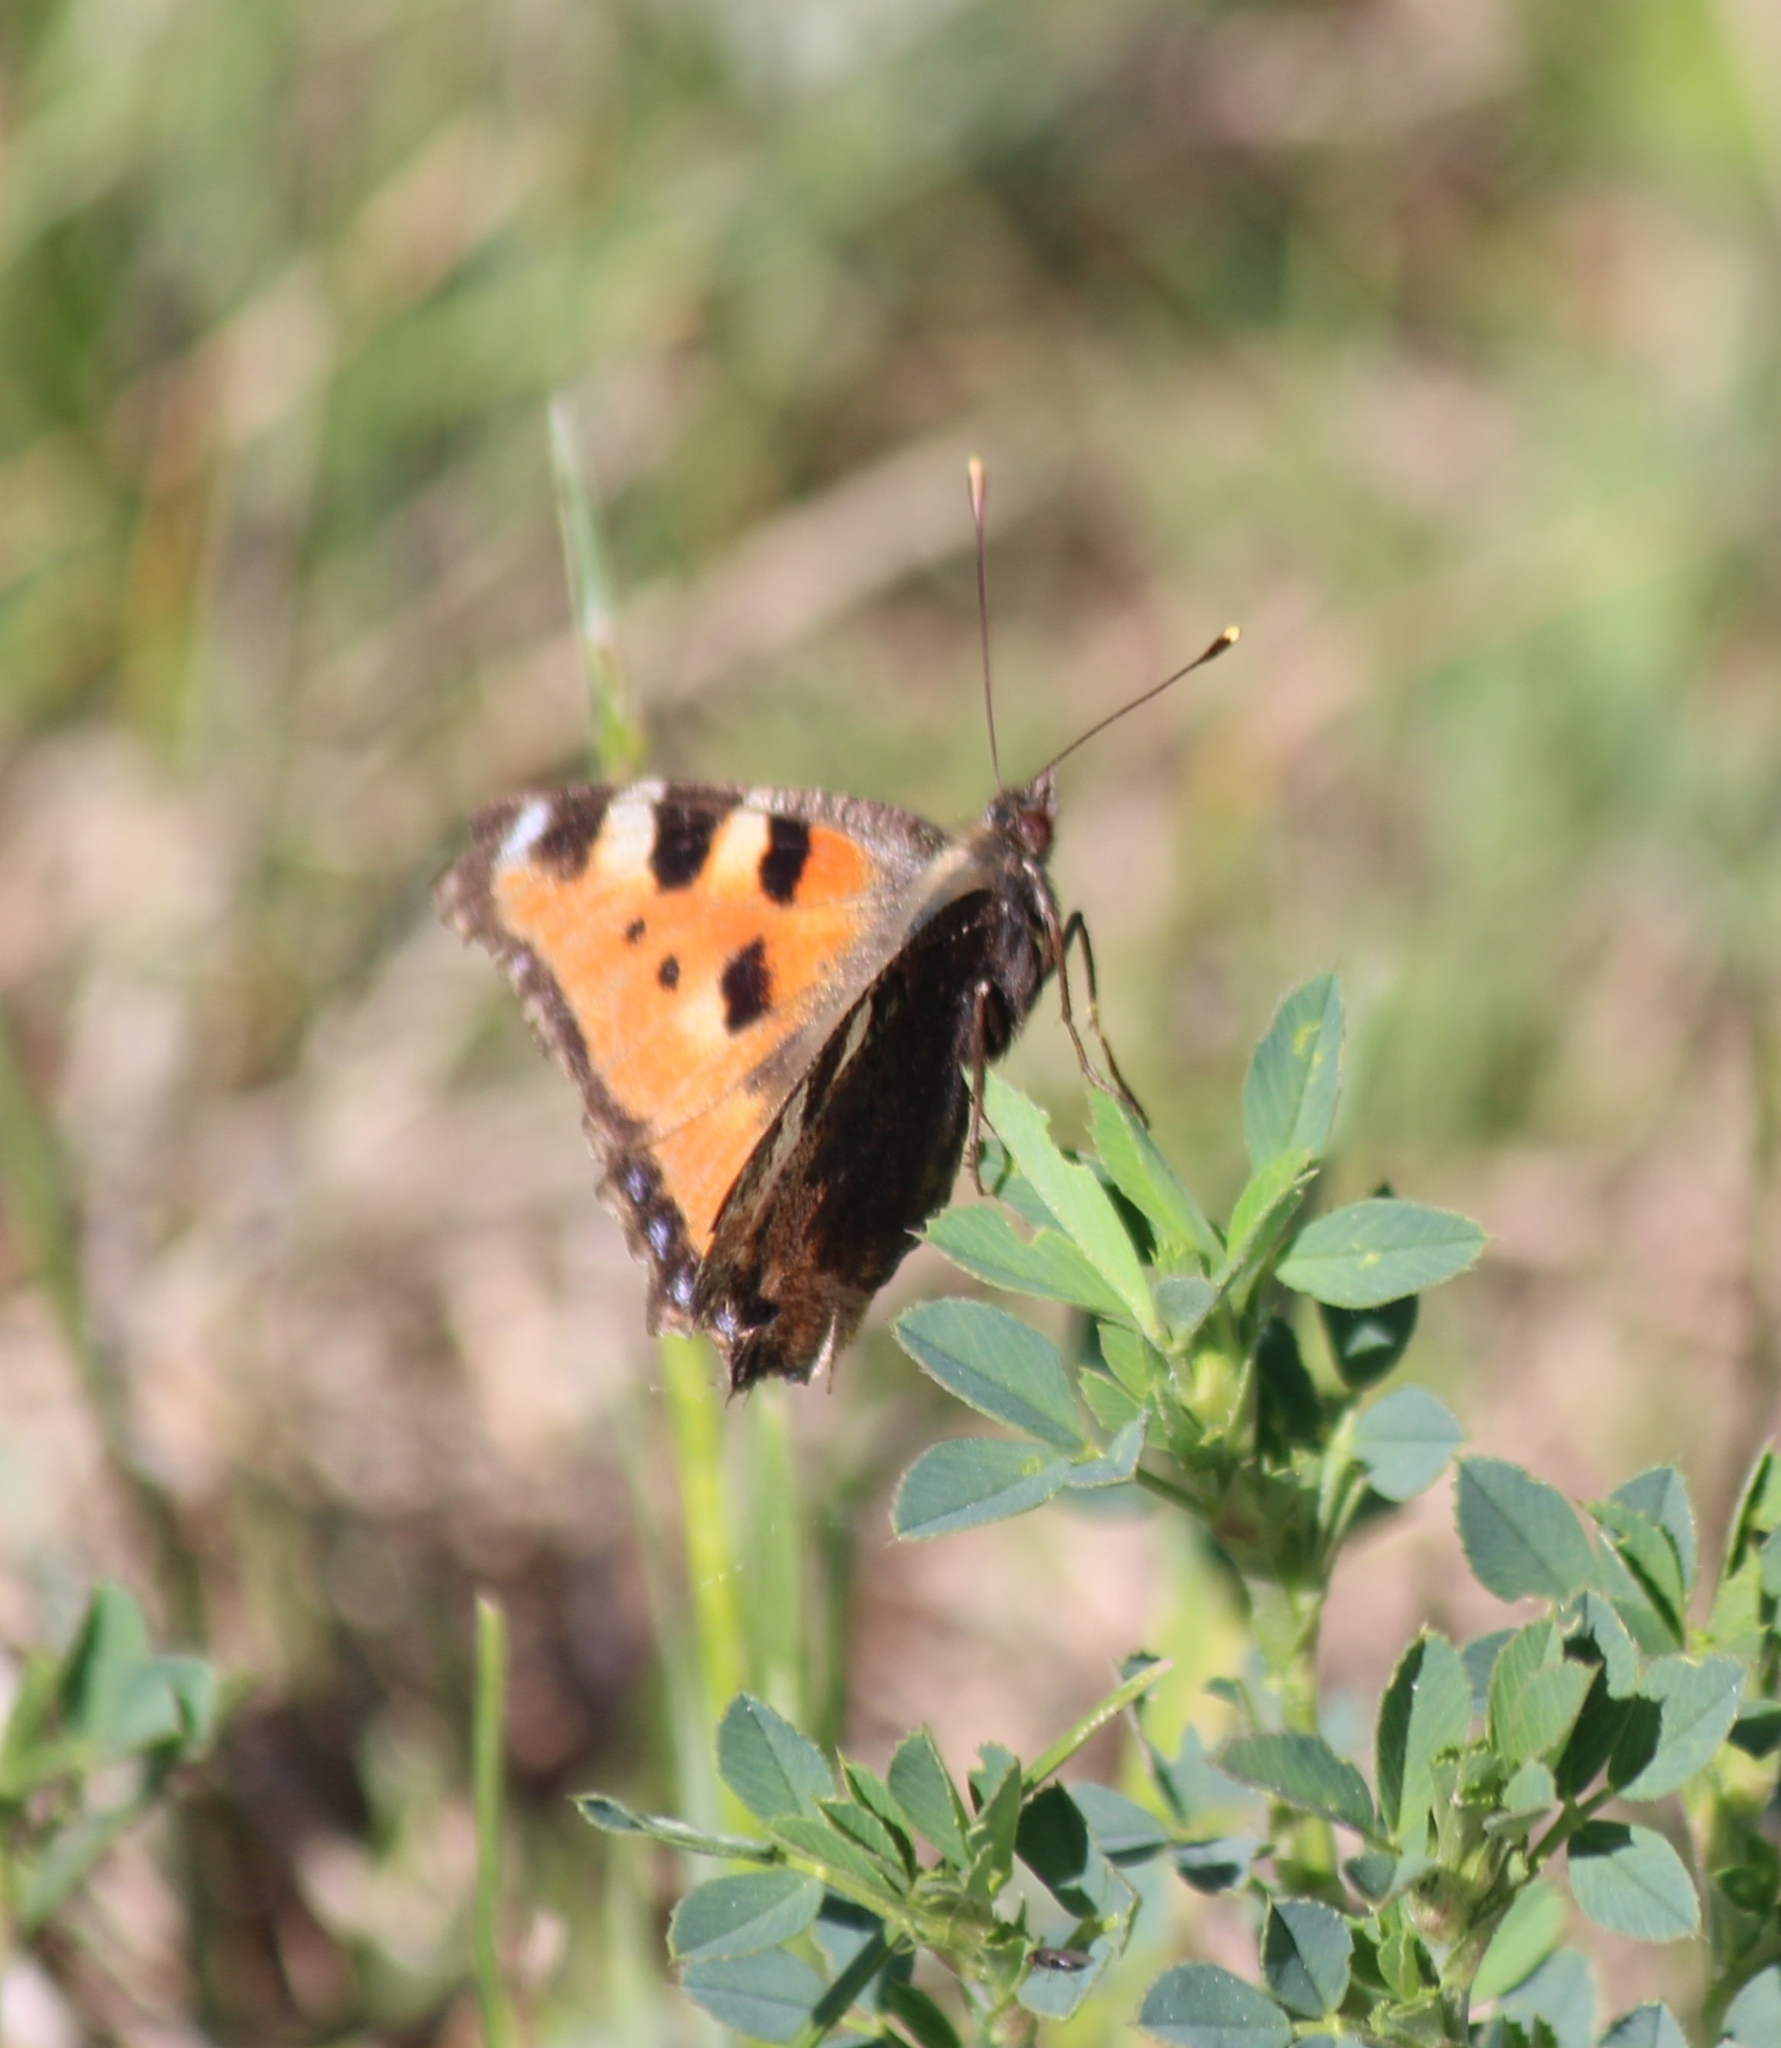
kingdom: Animalia
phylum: Arthropoda
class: Insecta
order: Lepidoptera
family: Nymphalidae
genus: Aglais
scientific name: Aglais urticae
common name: Small tortoiseshell
